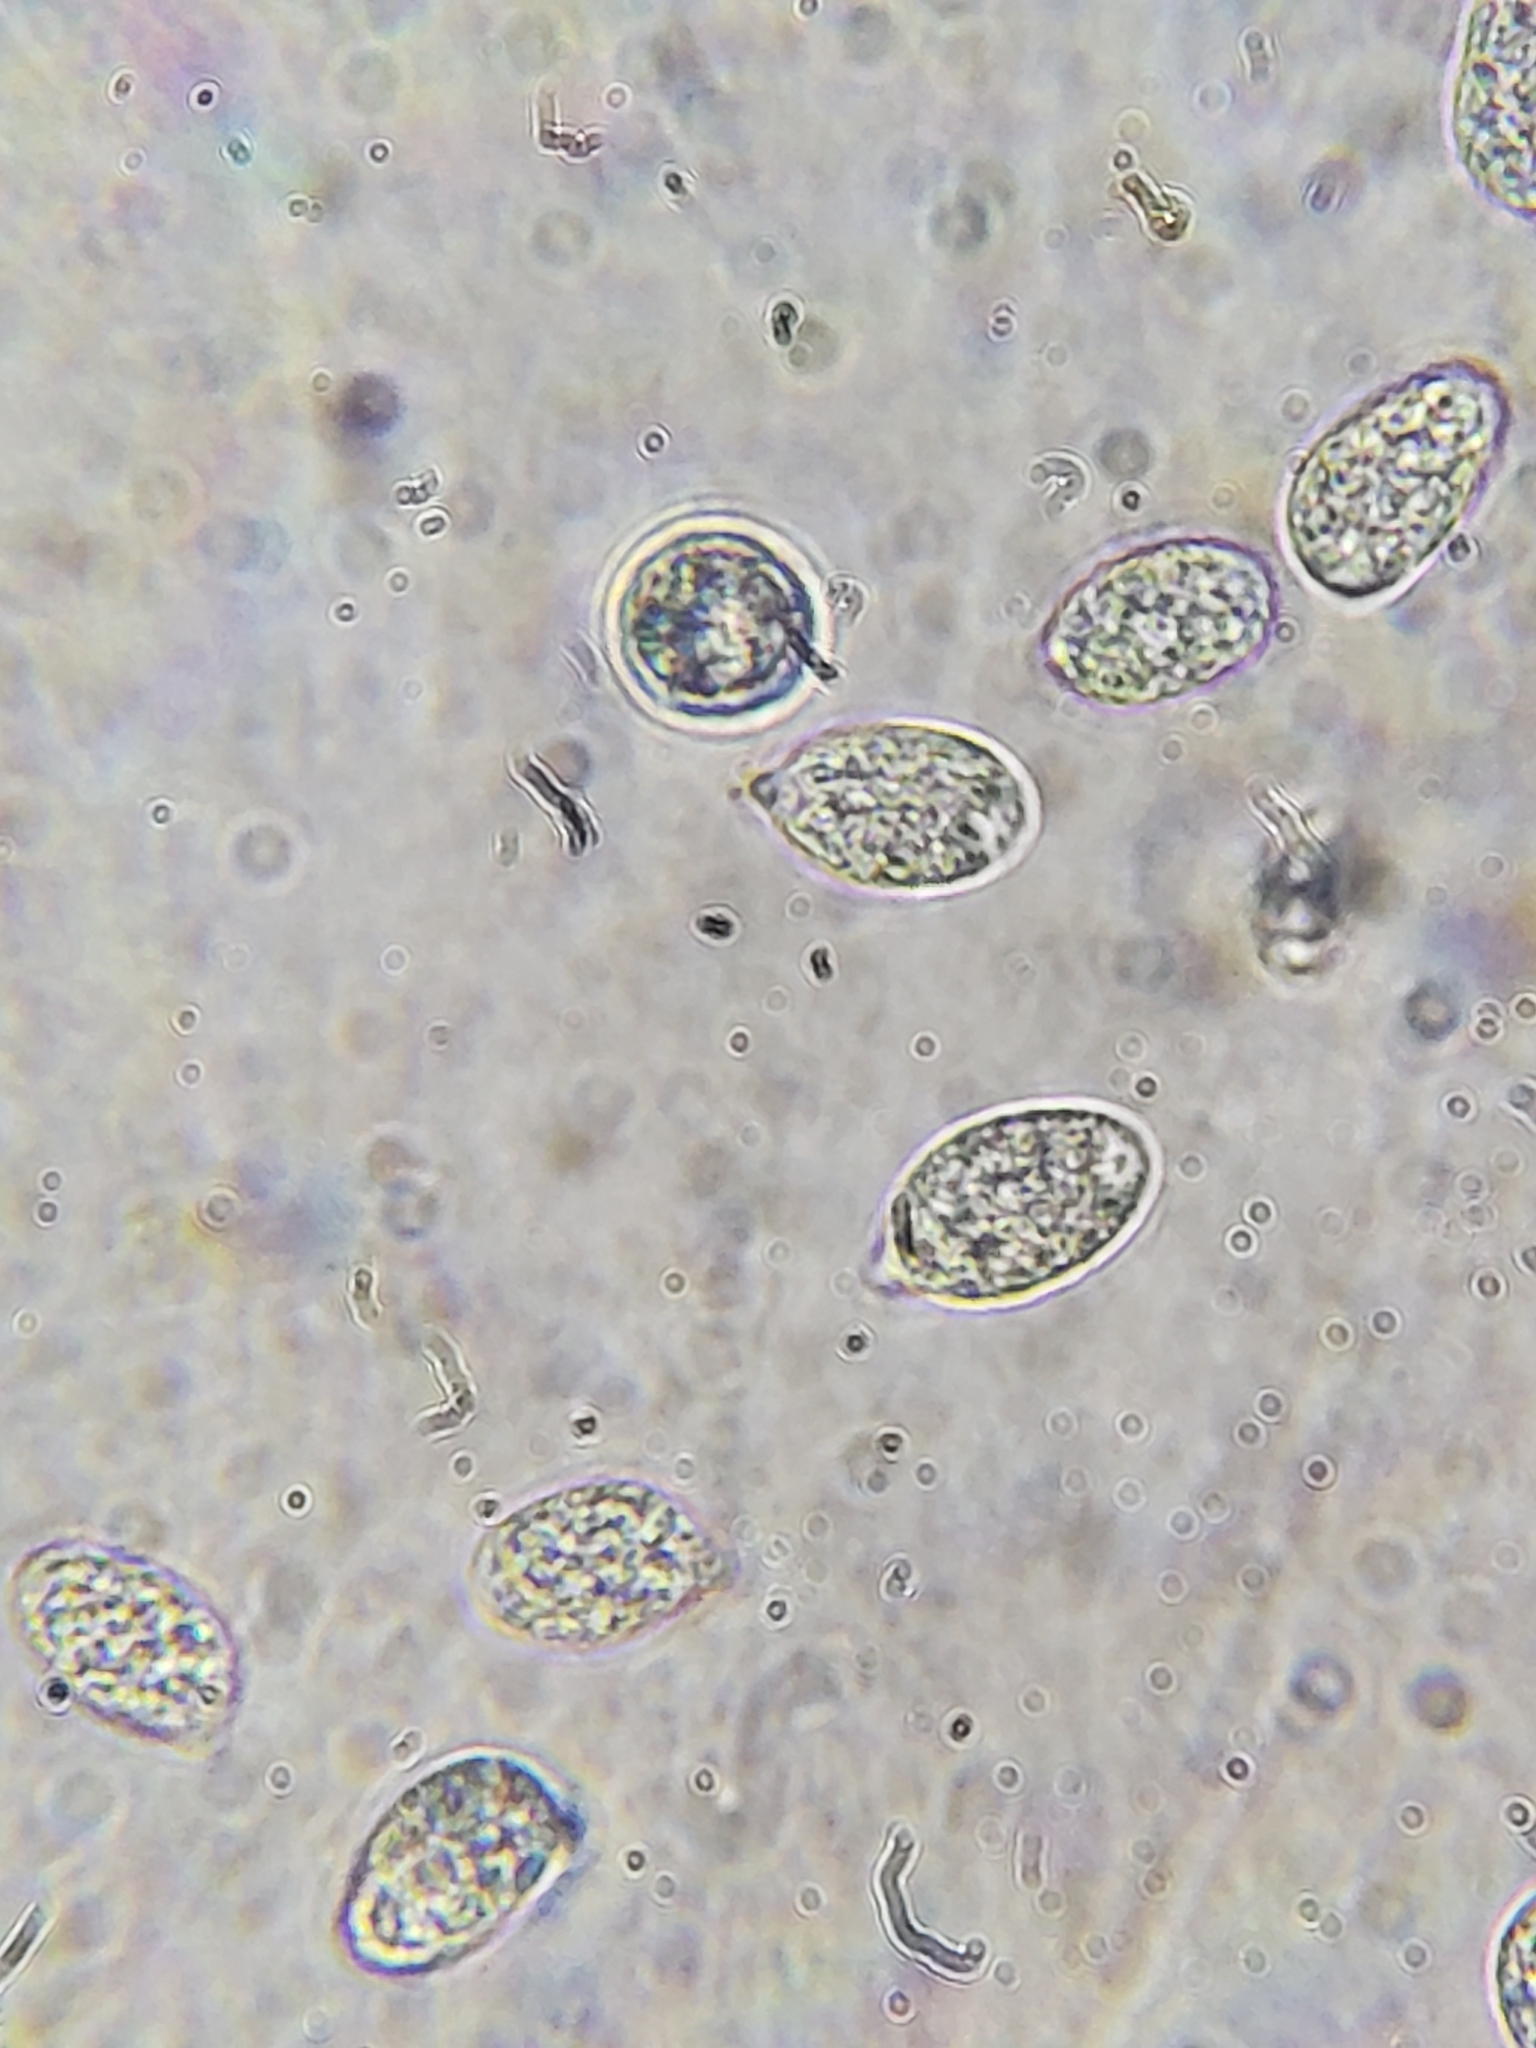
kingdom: Fungi
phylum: Basidiomycota
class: Agaricomycetes
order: Agaricales
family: Amanitaceae
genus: Amanita
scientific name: Amanita parcivolvata
